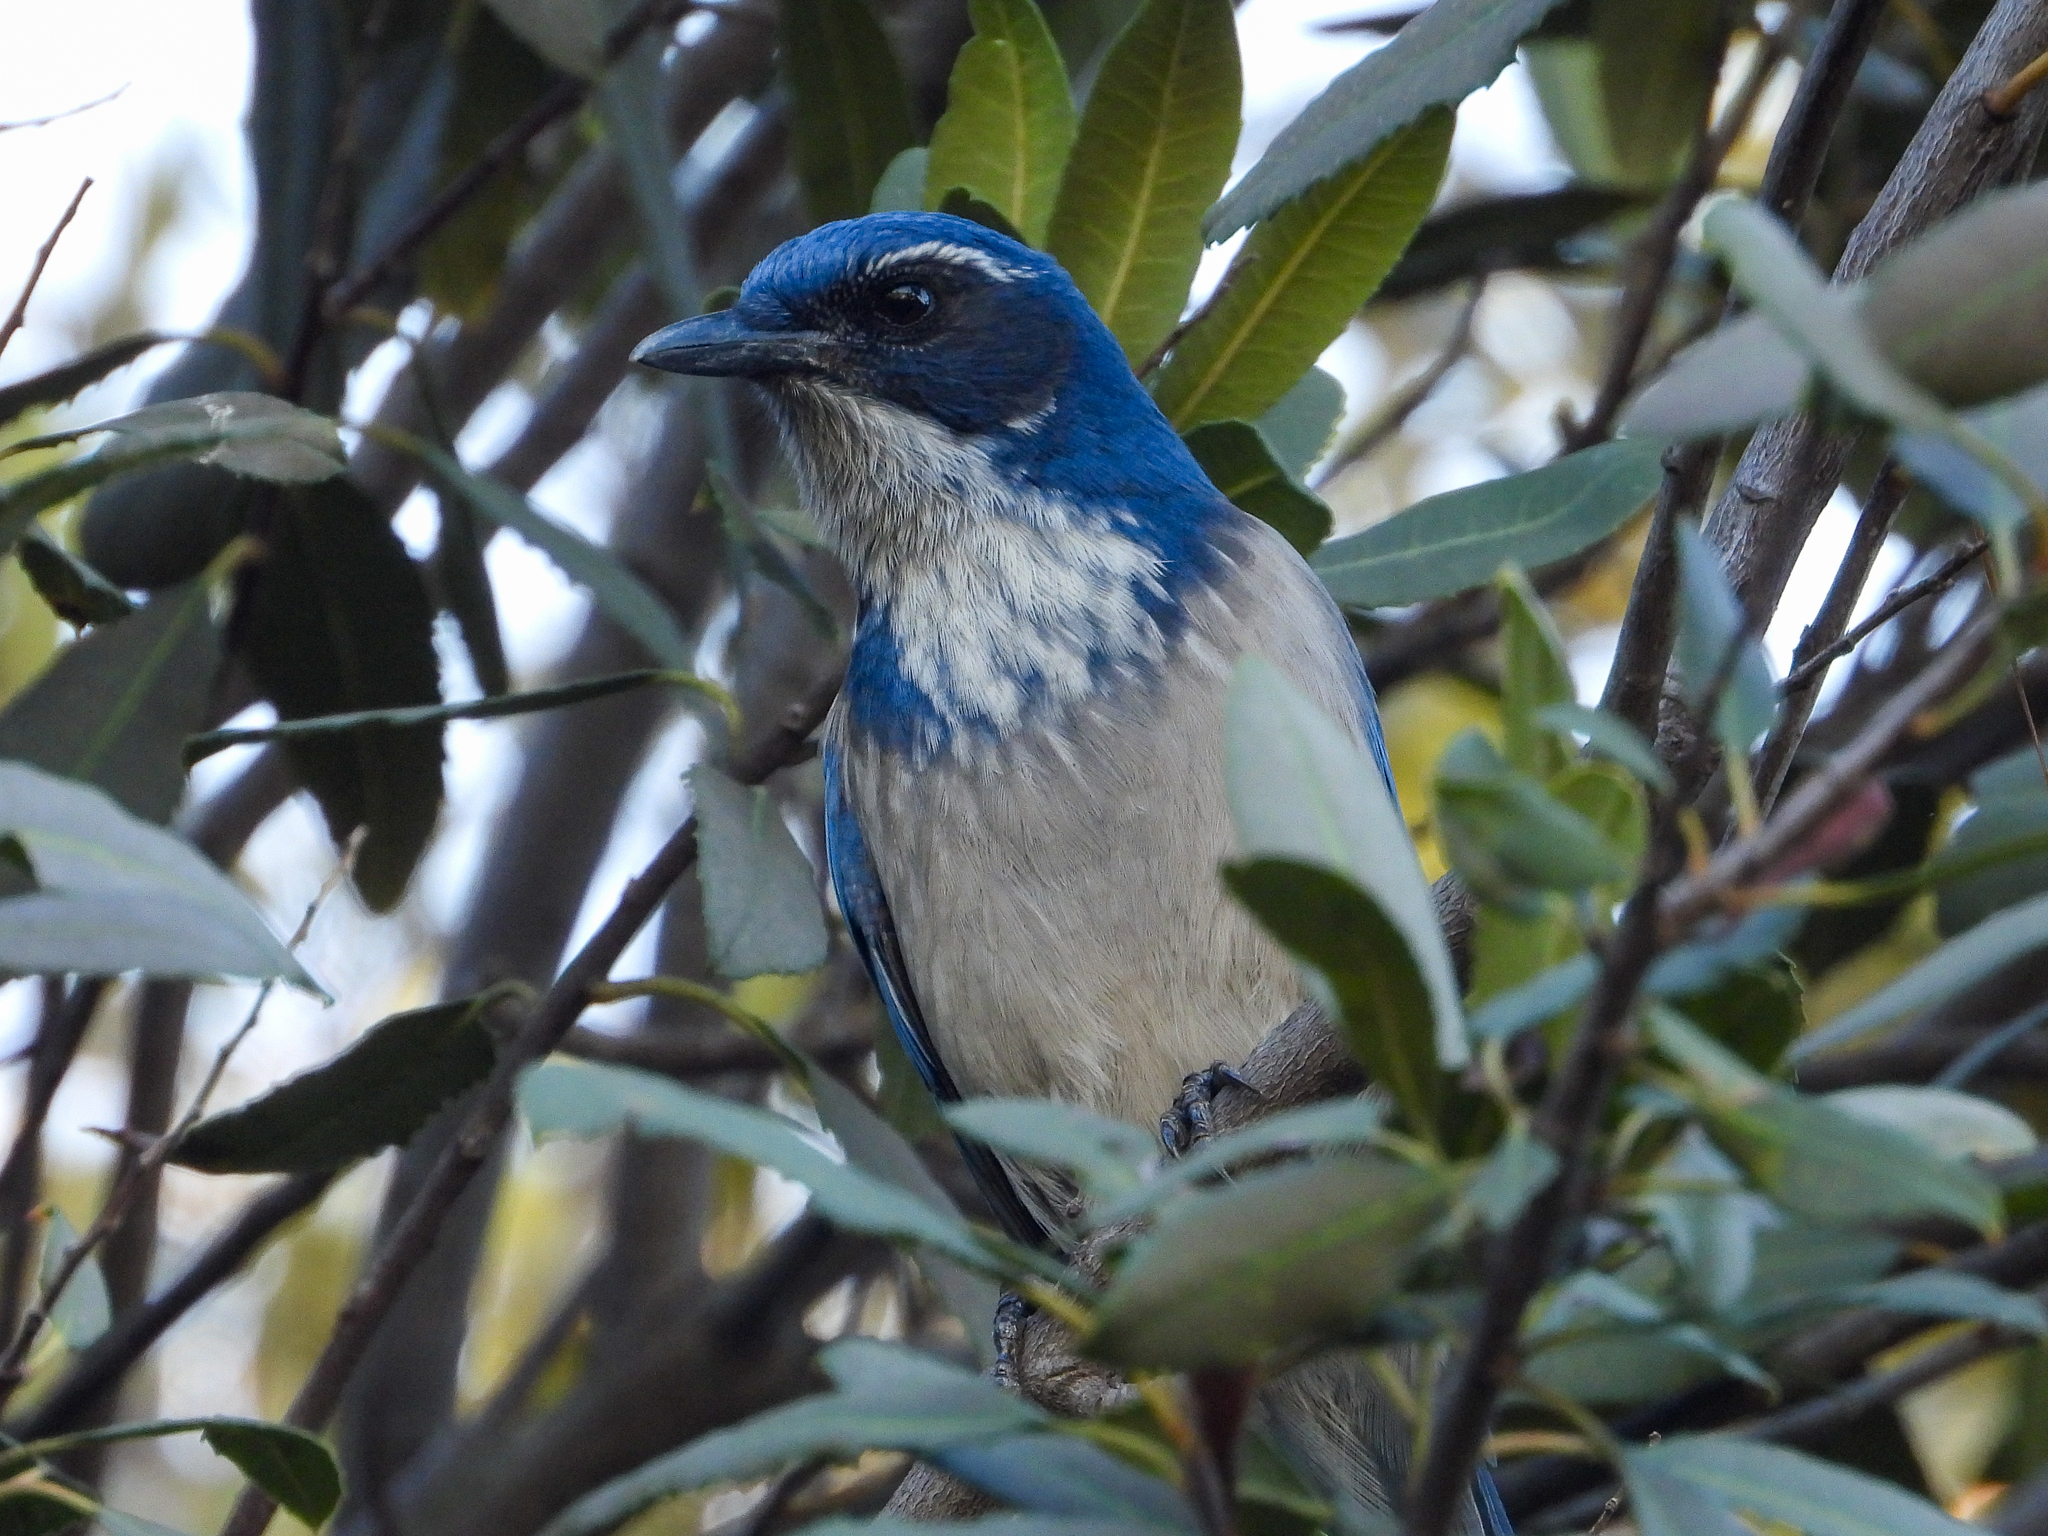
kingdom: Animalia
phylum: Chordata
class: Aves
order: Passeriformes
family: Corvidae
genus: Aphelocoma
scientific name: Aphelocoma californica
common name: California scrub-jay
